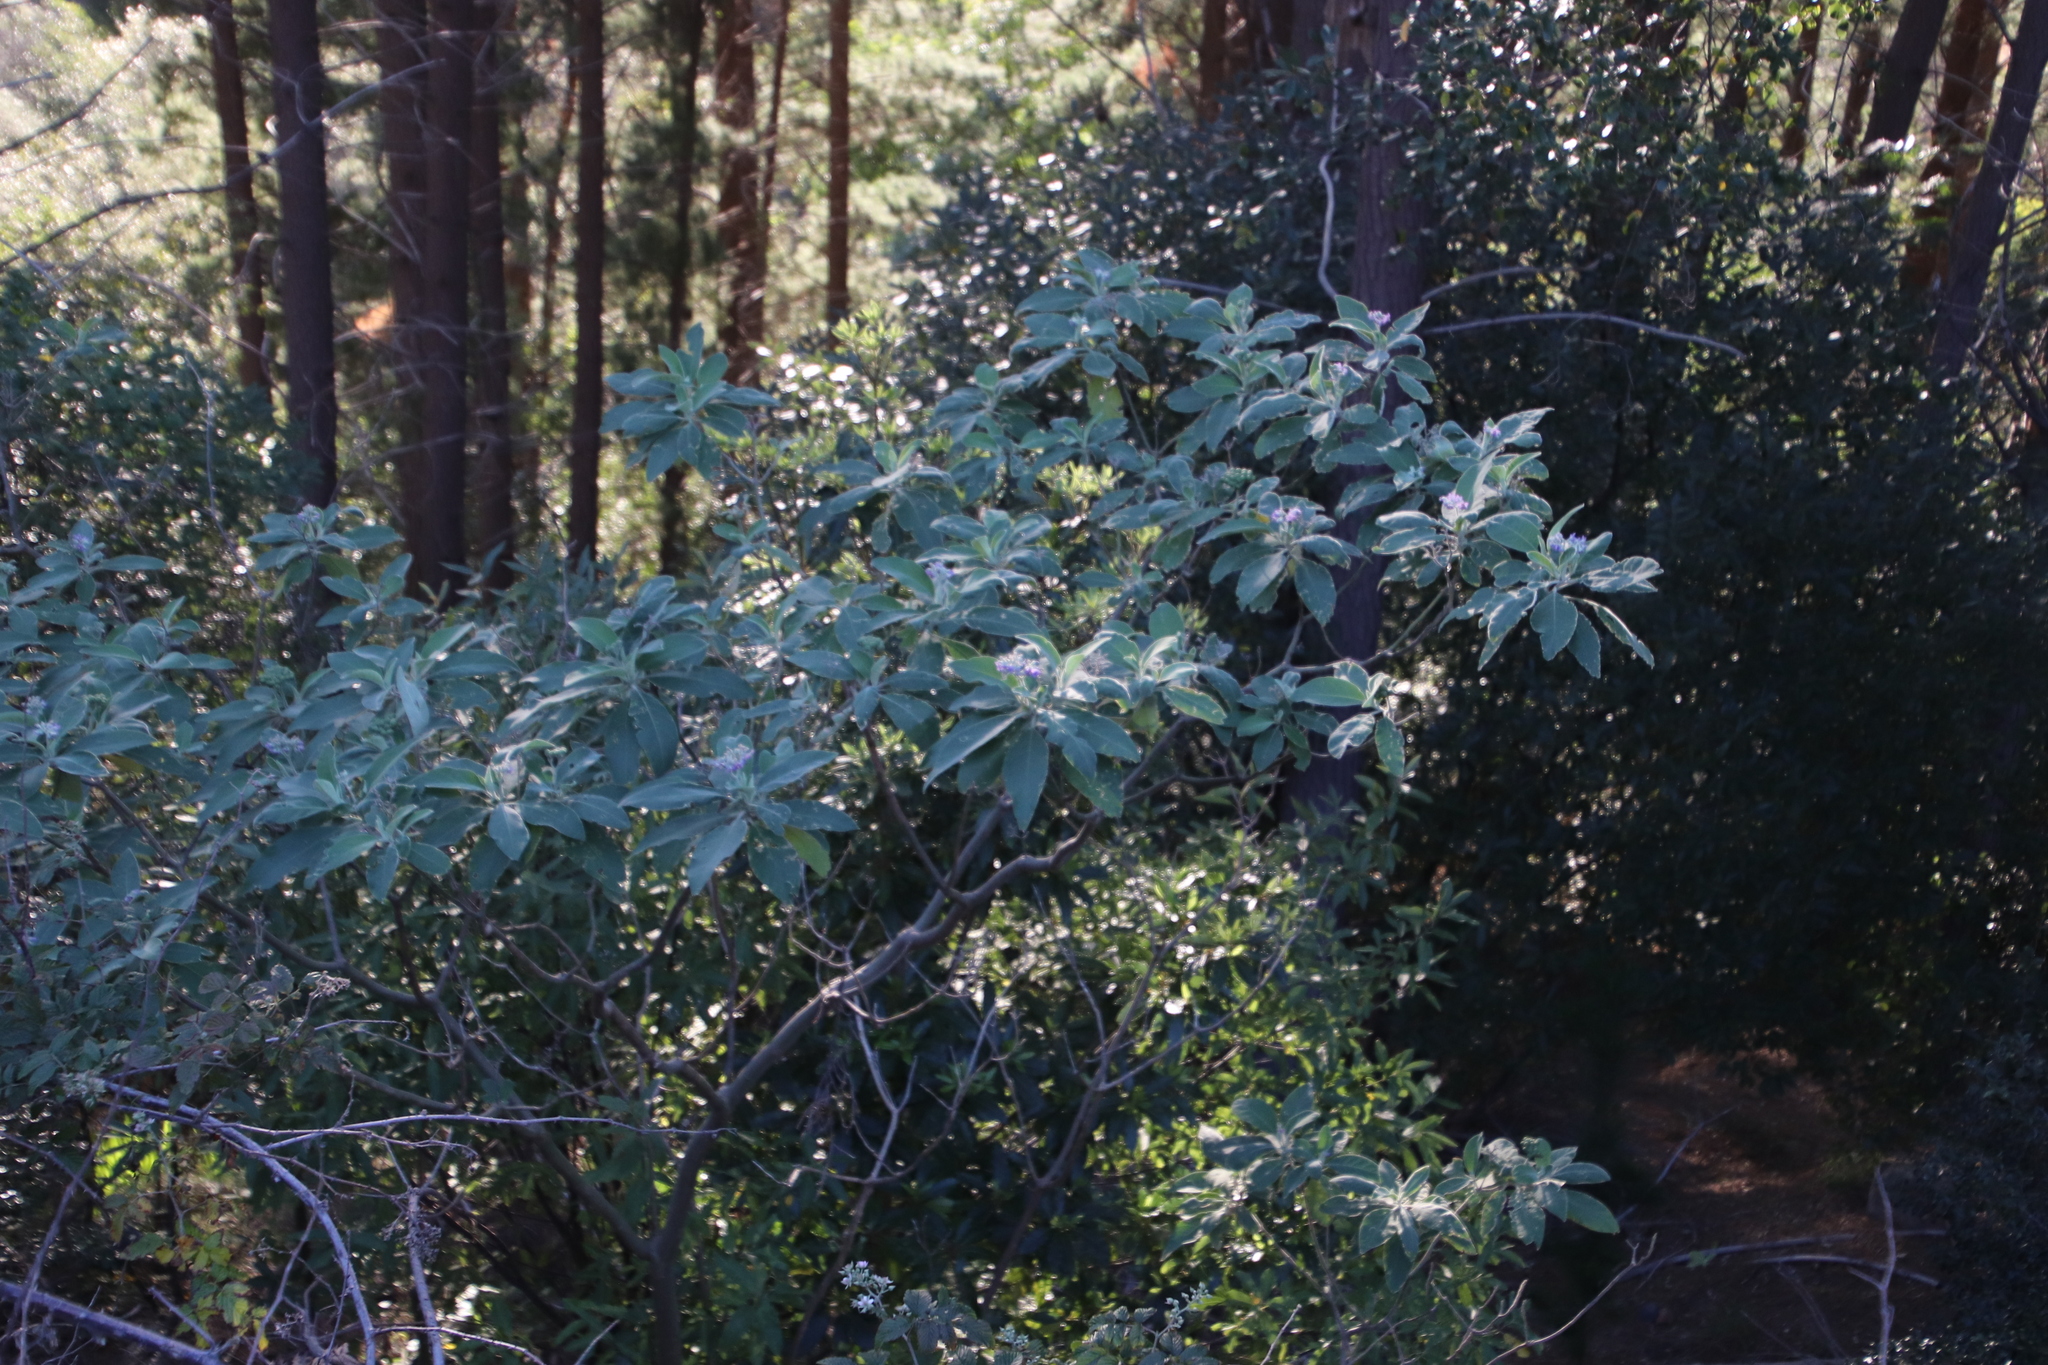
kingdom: Plantae
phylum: Tracheophyta
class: Magnoliopsida
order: Solanales
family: Solanaceae
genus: Solanum
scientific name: Solanum mauritianum
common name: Earleaf nightshade
